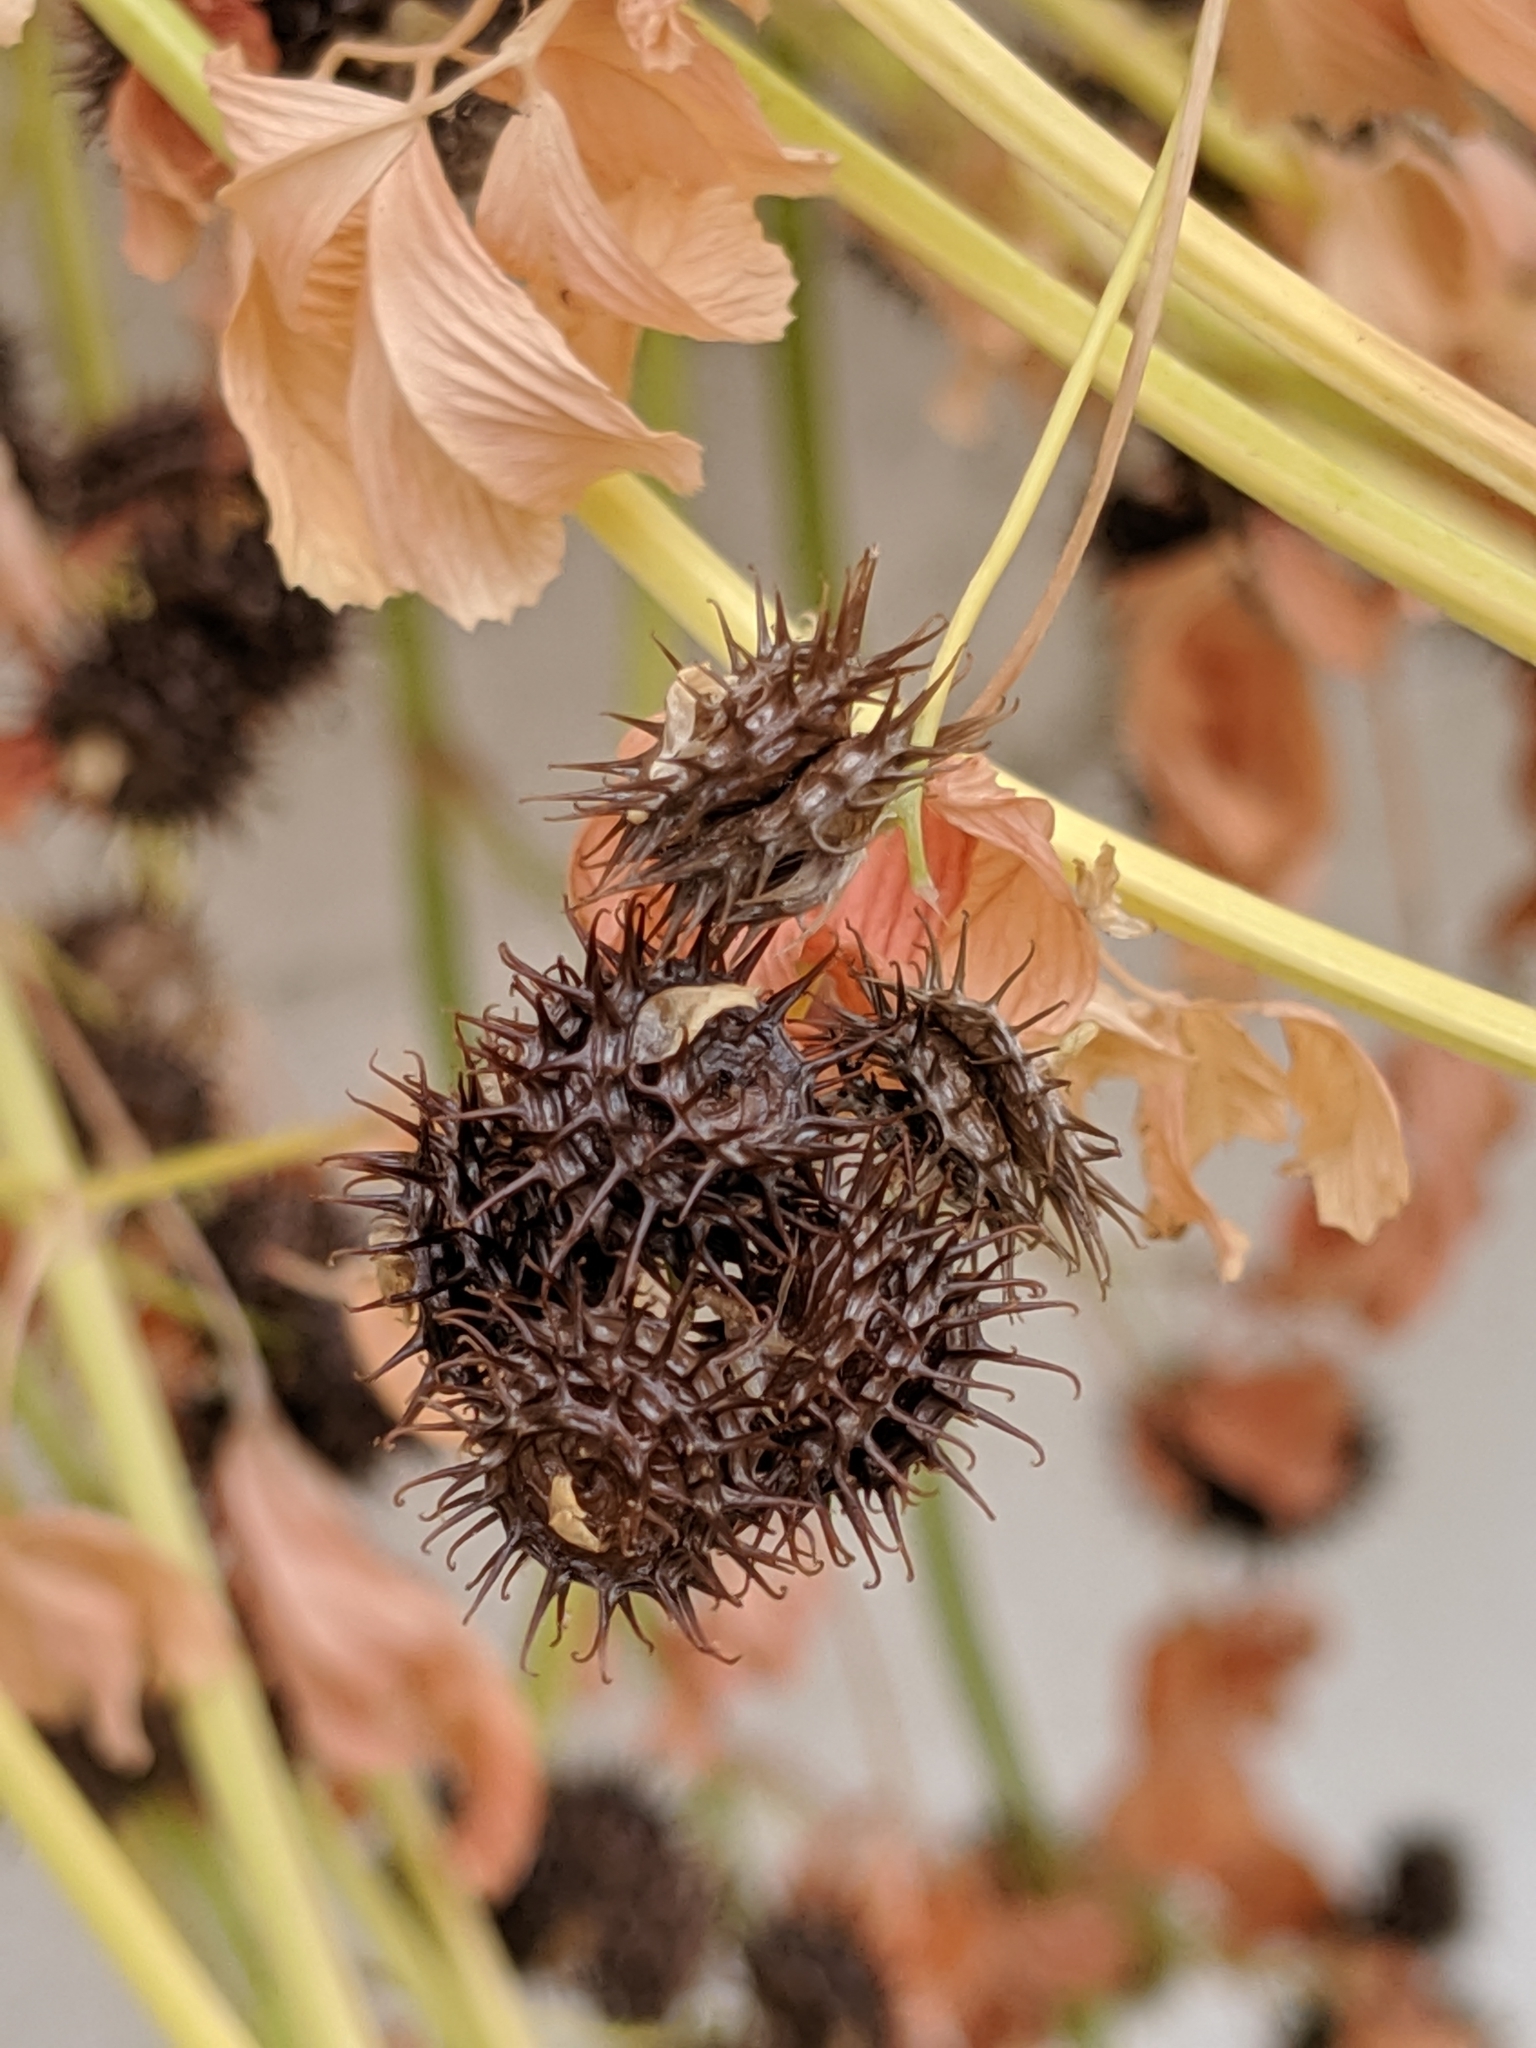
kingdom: Plantae
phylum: Tracheophyta
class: Magnoliopsida
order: Fabales
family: Fabaceae
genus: Medicago
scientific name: Medicago polymorpha
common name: Burclover
